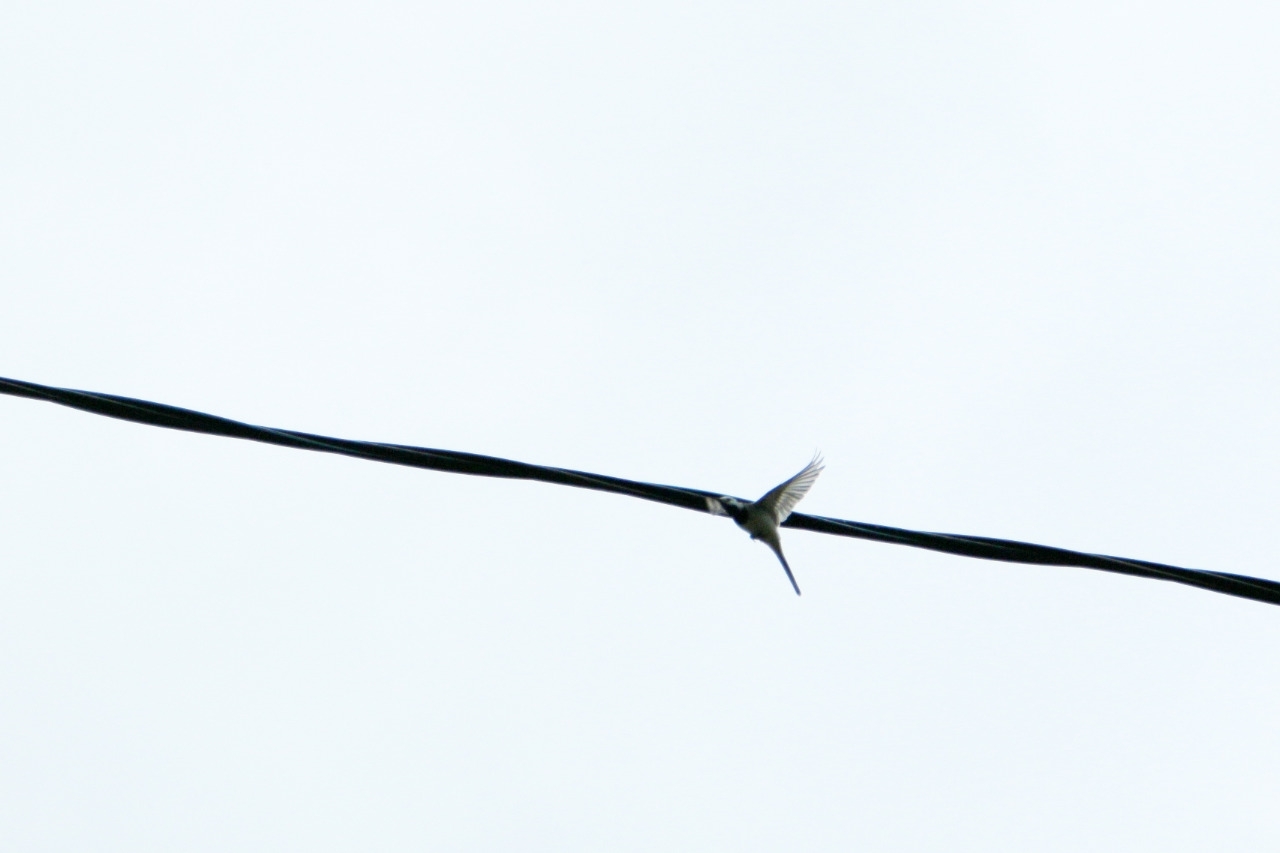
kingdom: Animalia
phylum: Chordata
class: Aves
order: Passeriformes
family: Motacillidae
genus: Motacilla
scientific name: Motacilla alba
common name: White wagtail
